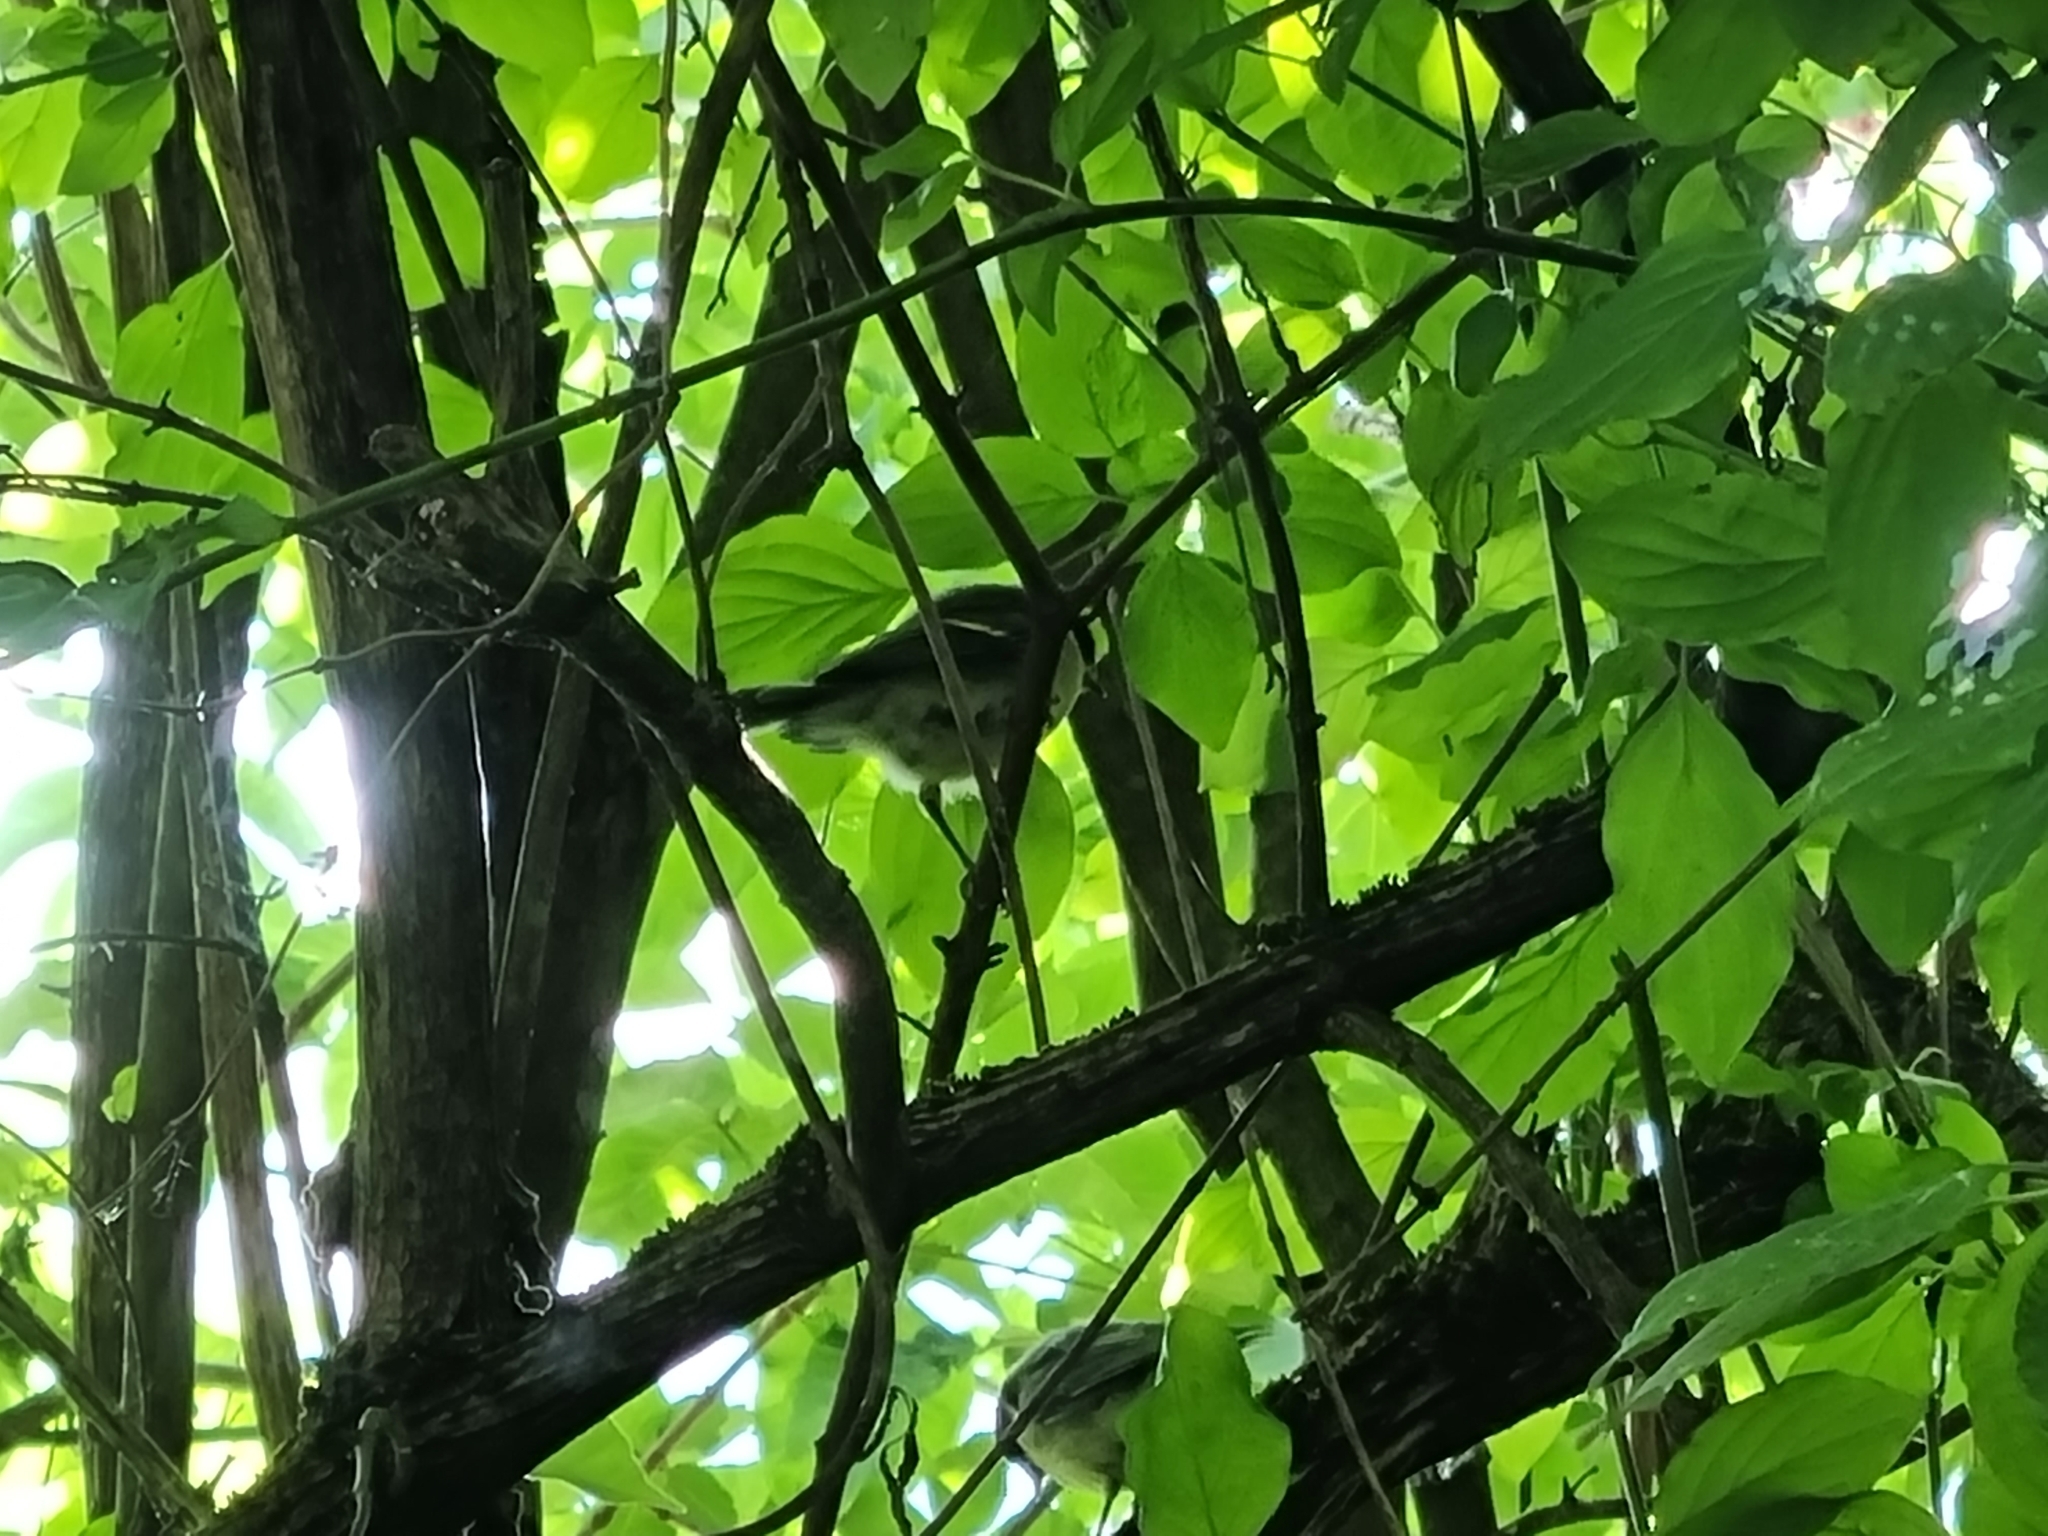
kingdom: Animalia
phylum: Chordata
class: Aves
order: Passeriformes
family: Paridae
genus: Parus
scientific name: Parus major
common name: Great tit
